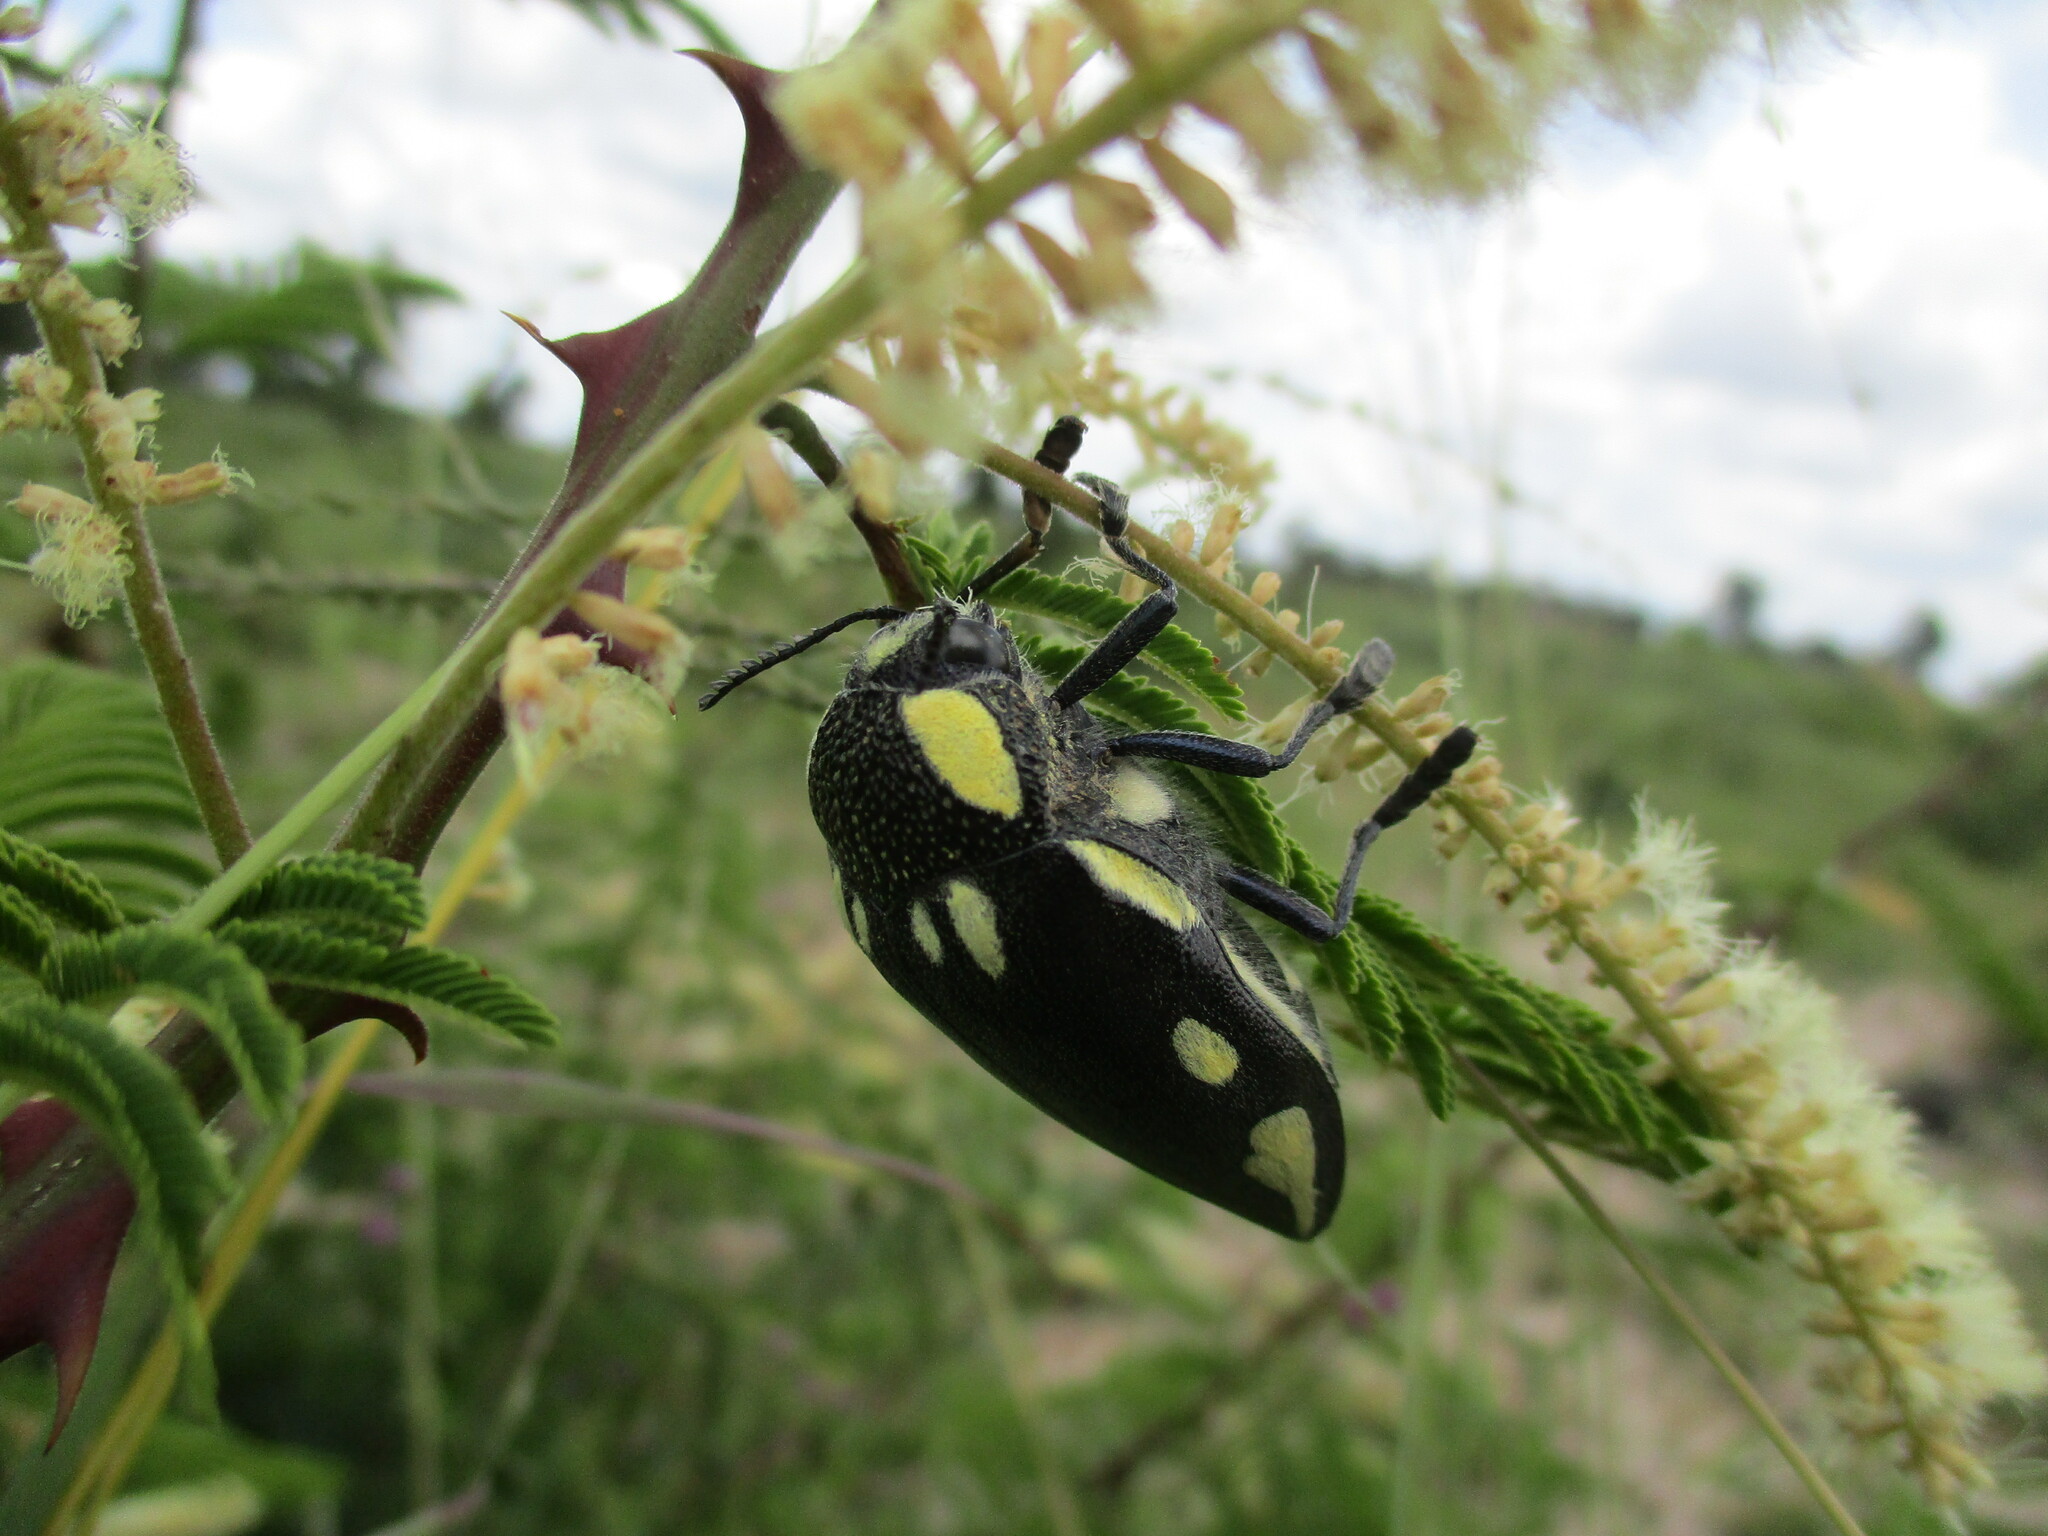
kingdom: Animalia
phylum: Arthropoda
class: Insecta
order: Coleoptera
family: Buprestidae
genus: Sternocera
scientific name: Sternocera orissa
